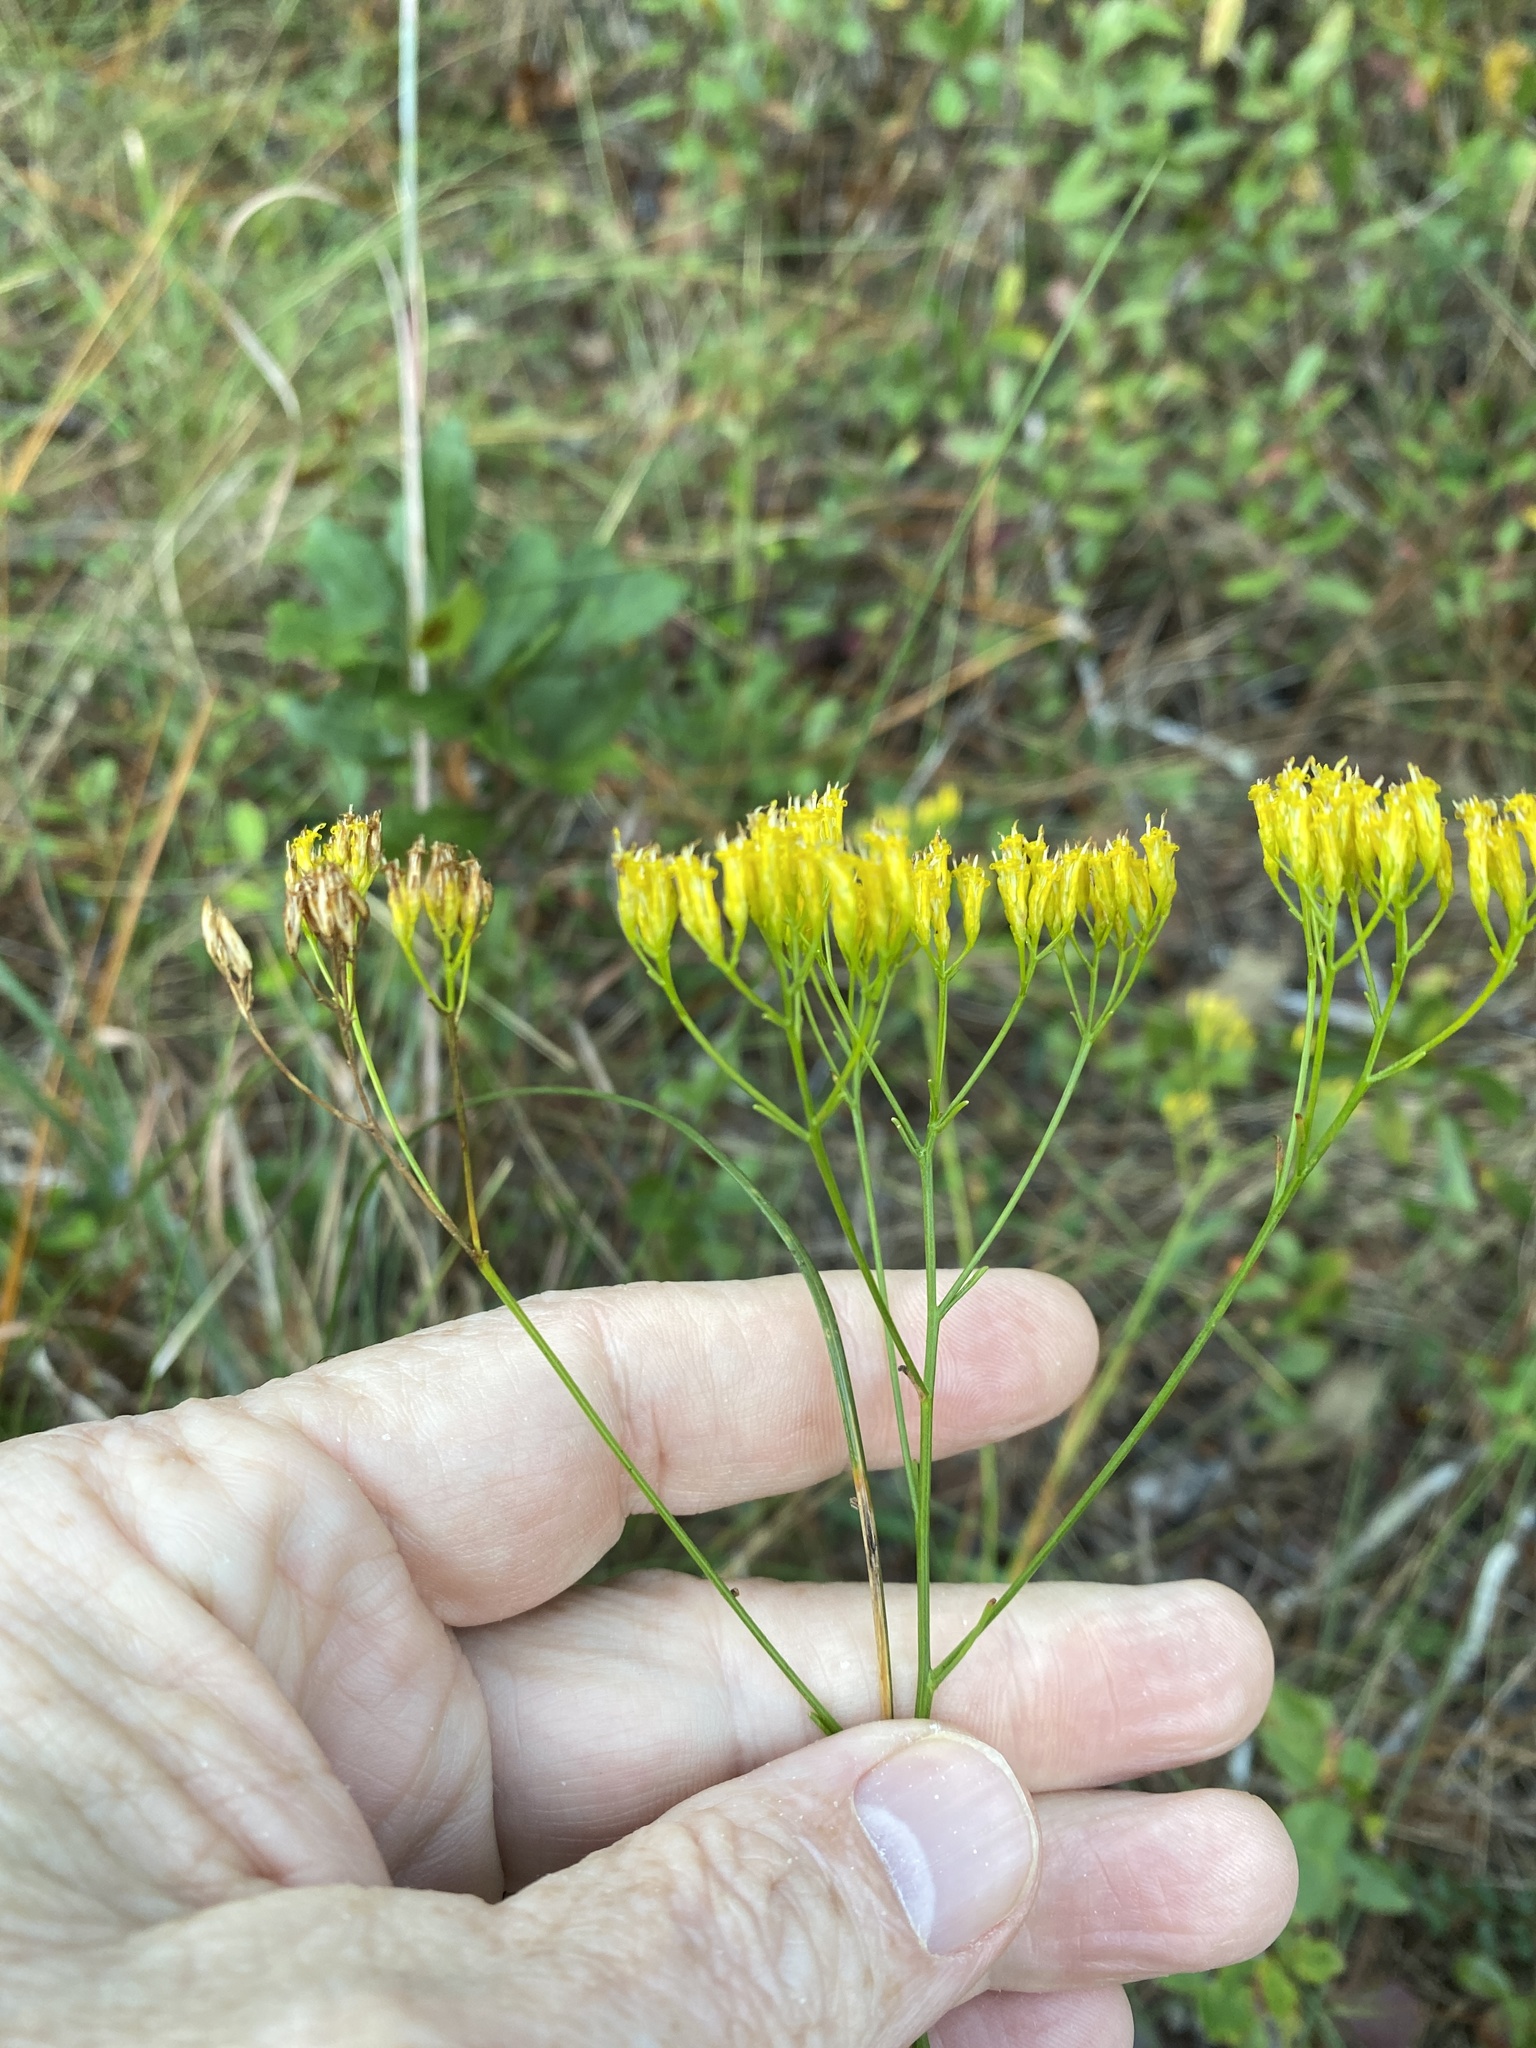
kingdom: Plantae
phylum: Tracheophyta
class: Magnoliopsida
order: Asterales
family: Asteraceae
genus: Bigelowia
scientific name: Bigelowia nudata
